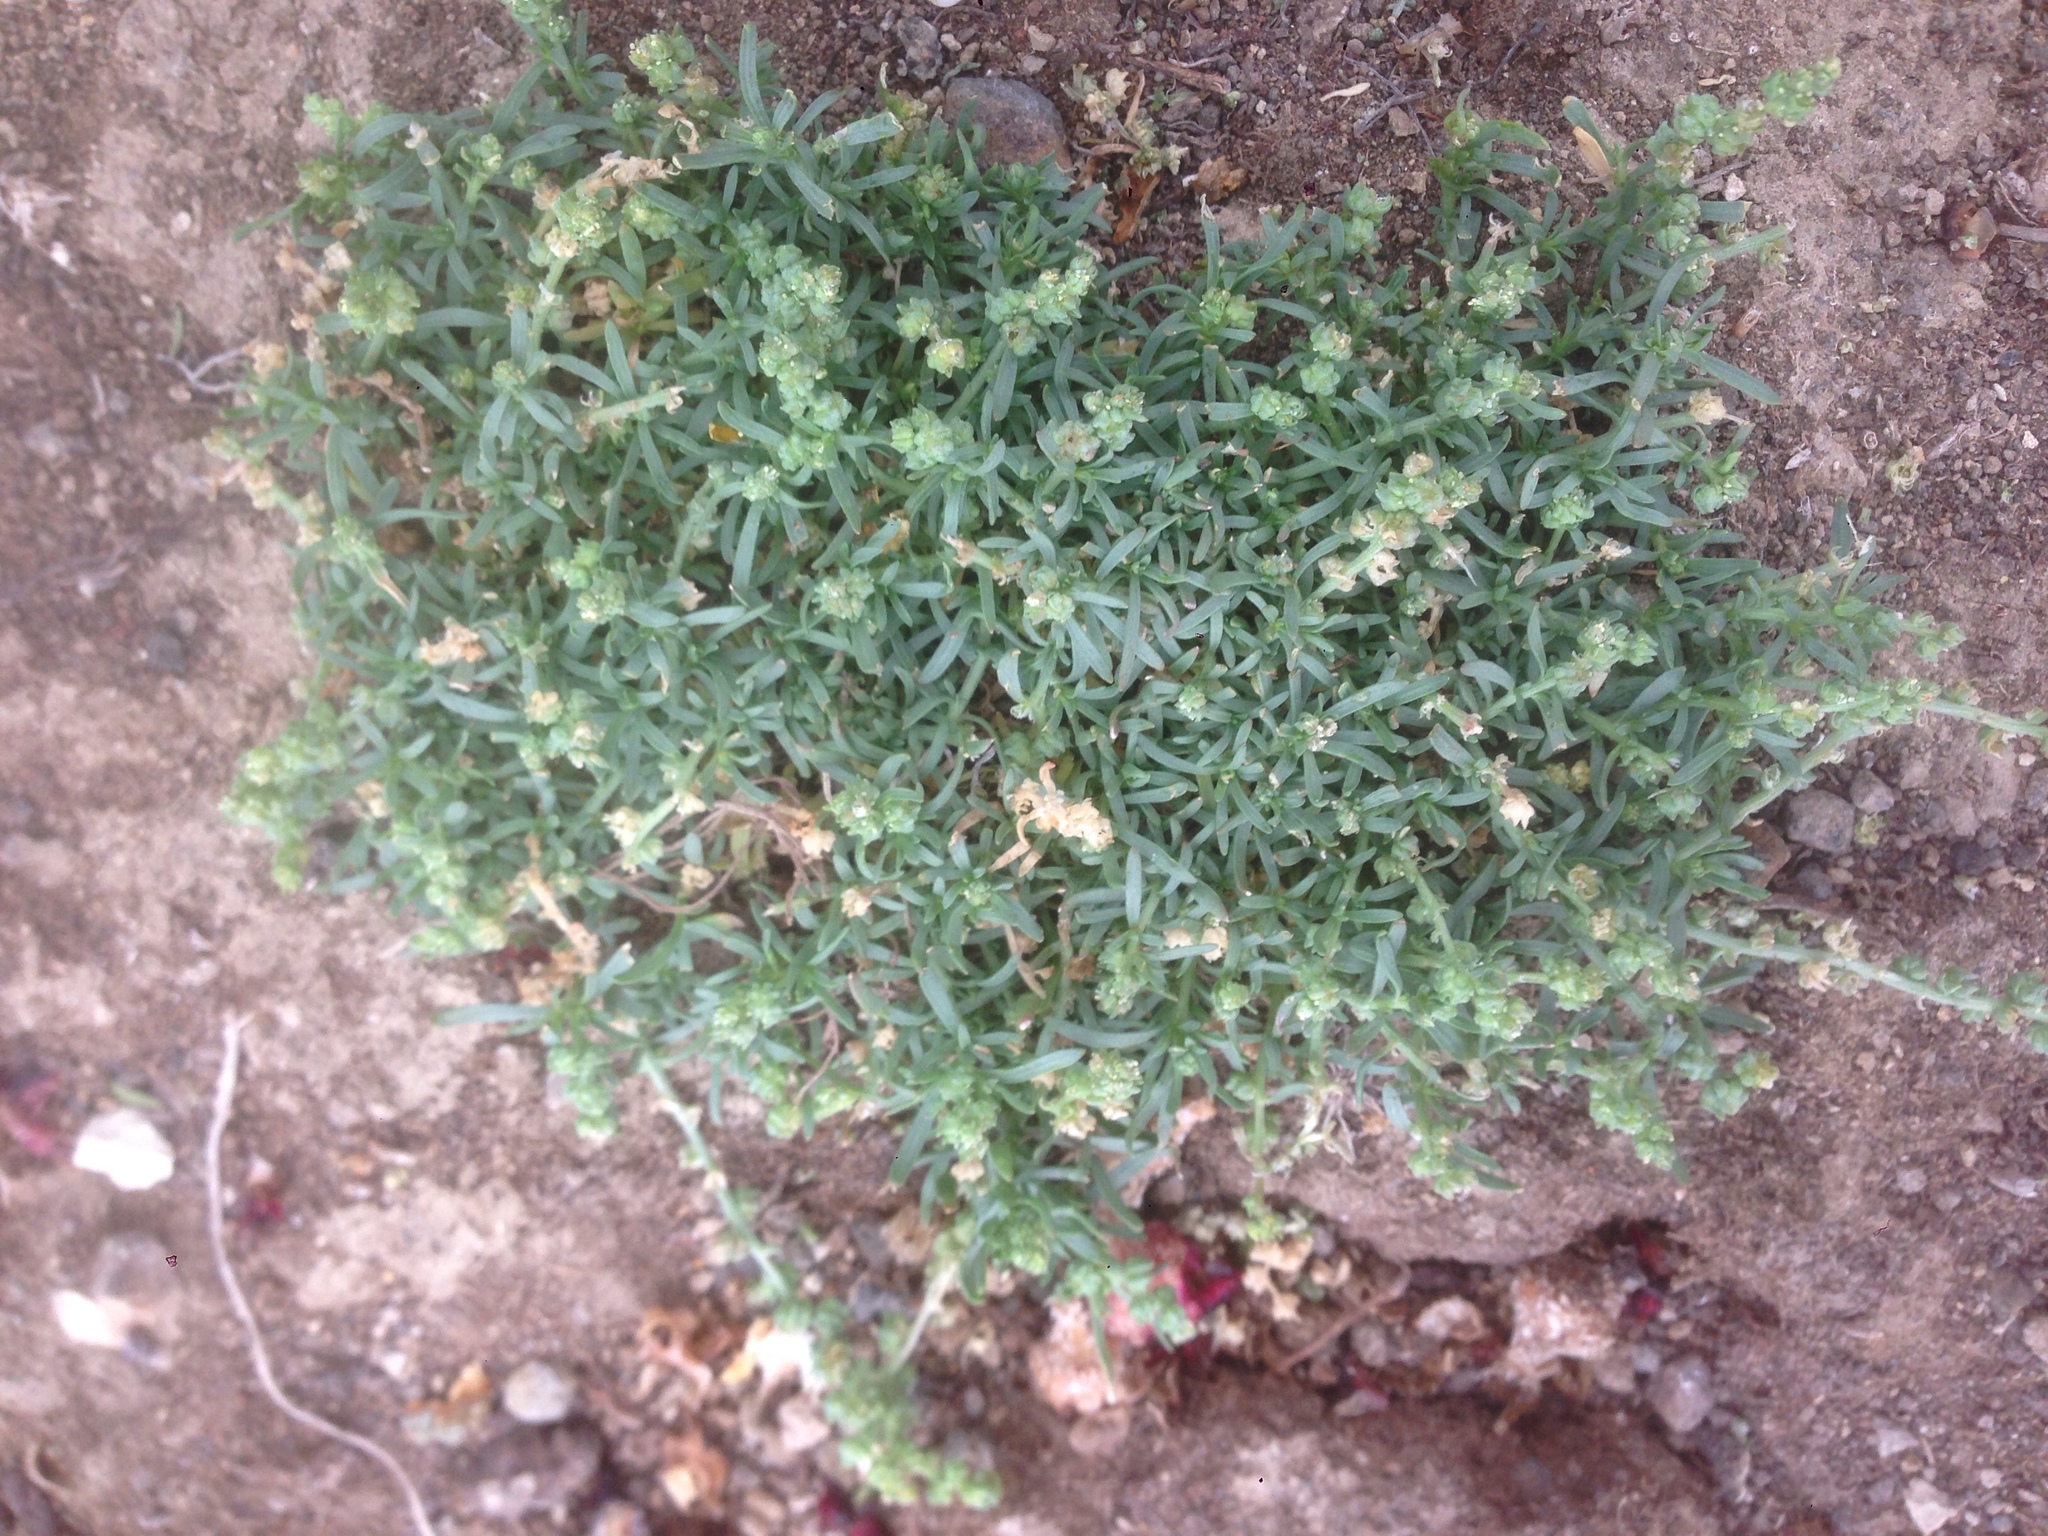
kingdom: Plantae
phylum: Tracheophyta
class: Magnoliopsida
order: Brassicales
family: Resedaceae
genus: Oligomeris
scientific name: Oligomeris linifolia
